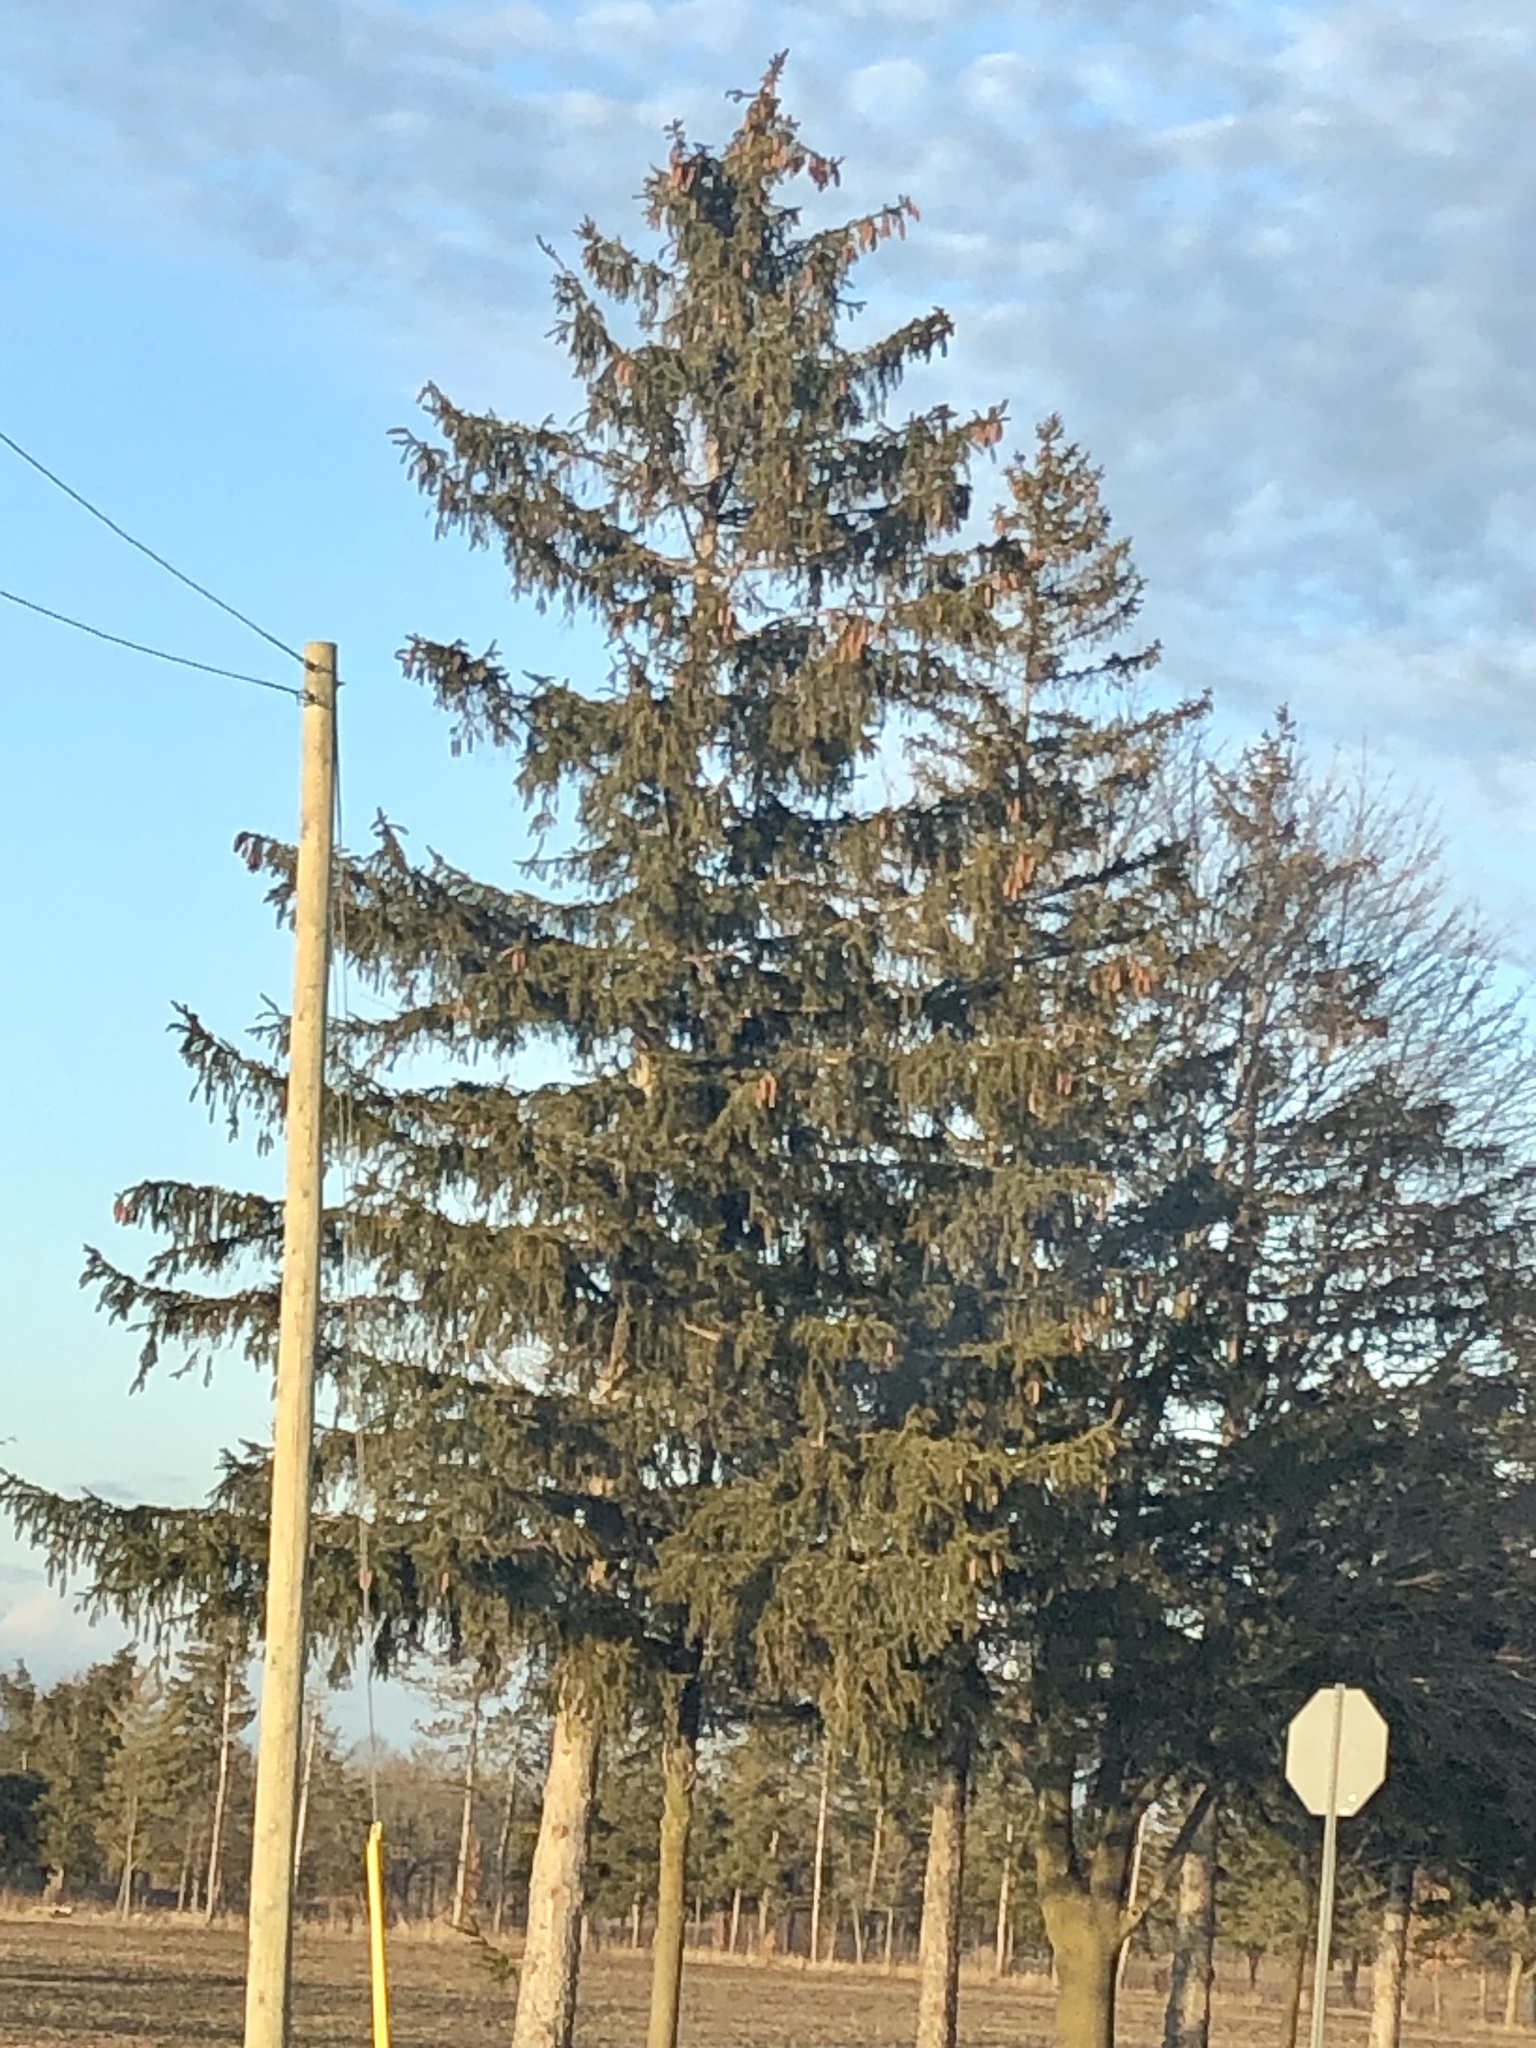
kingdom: Plantae
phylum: Tracheophyta
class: Pinopsida
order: Pinales
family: Pinaceae
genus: Picea
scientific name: Picea abies
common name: Norway spruce
